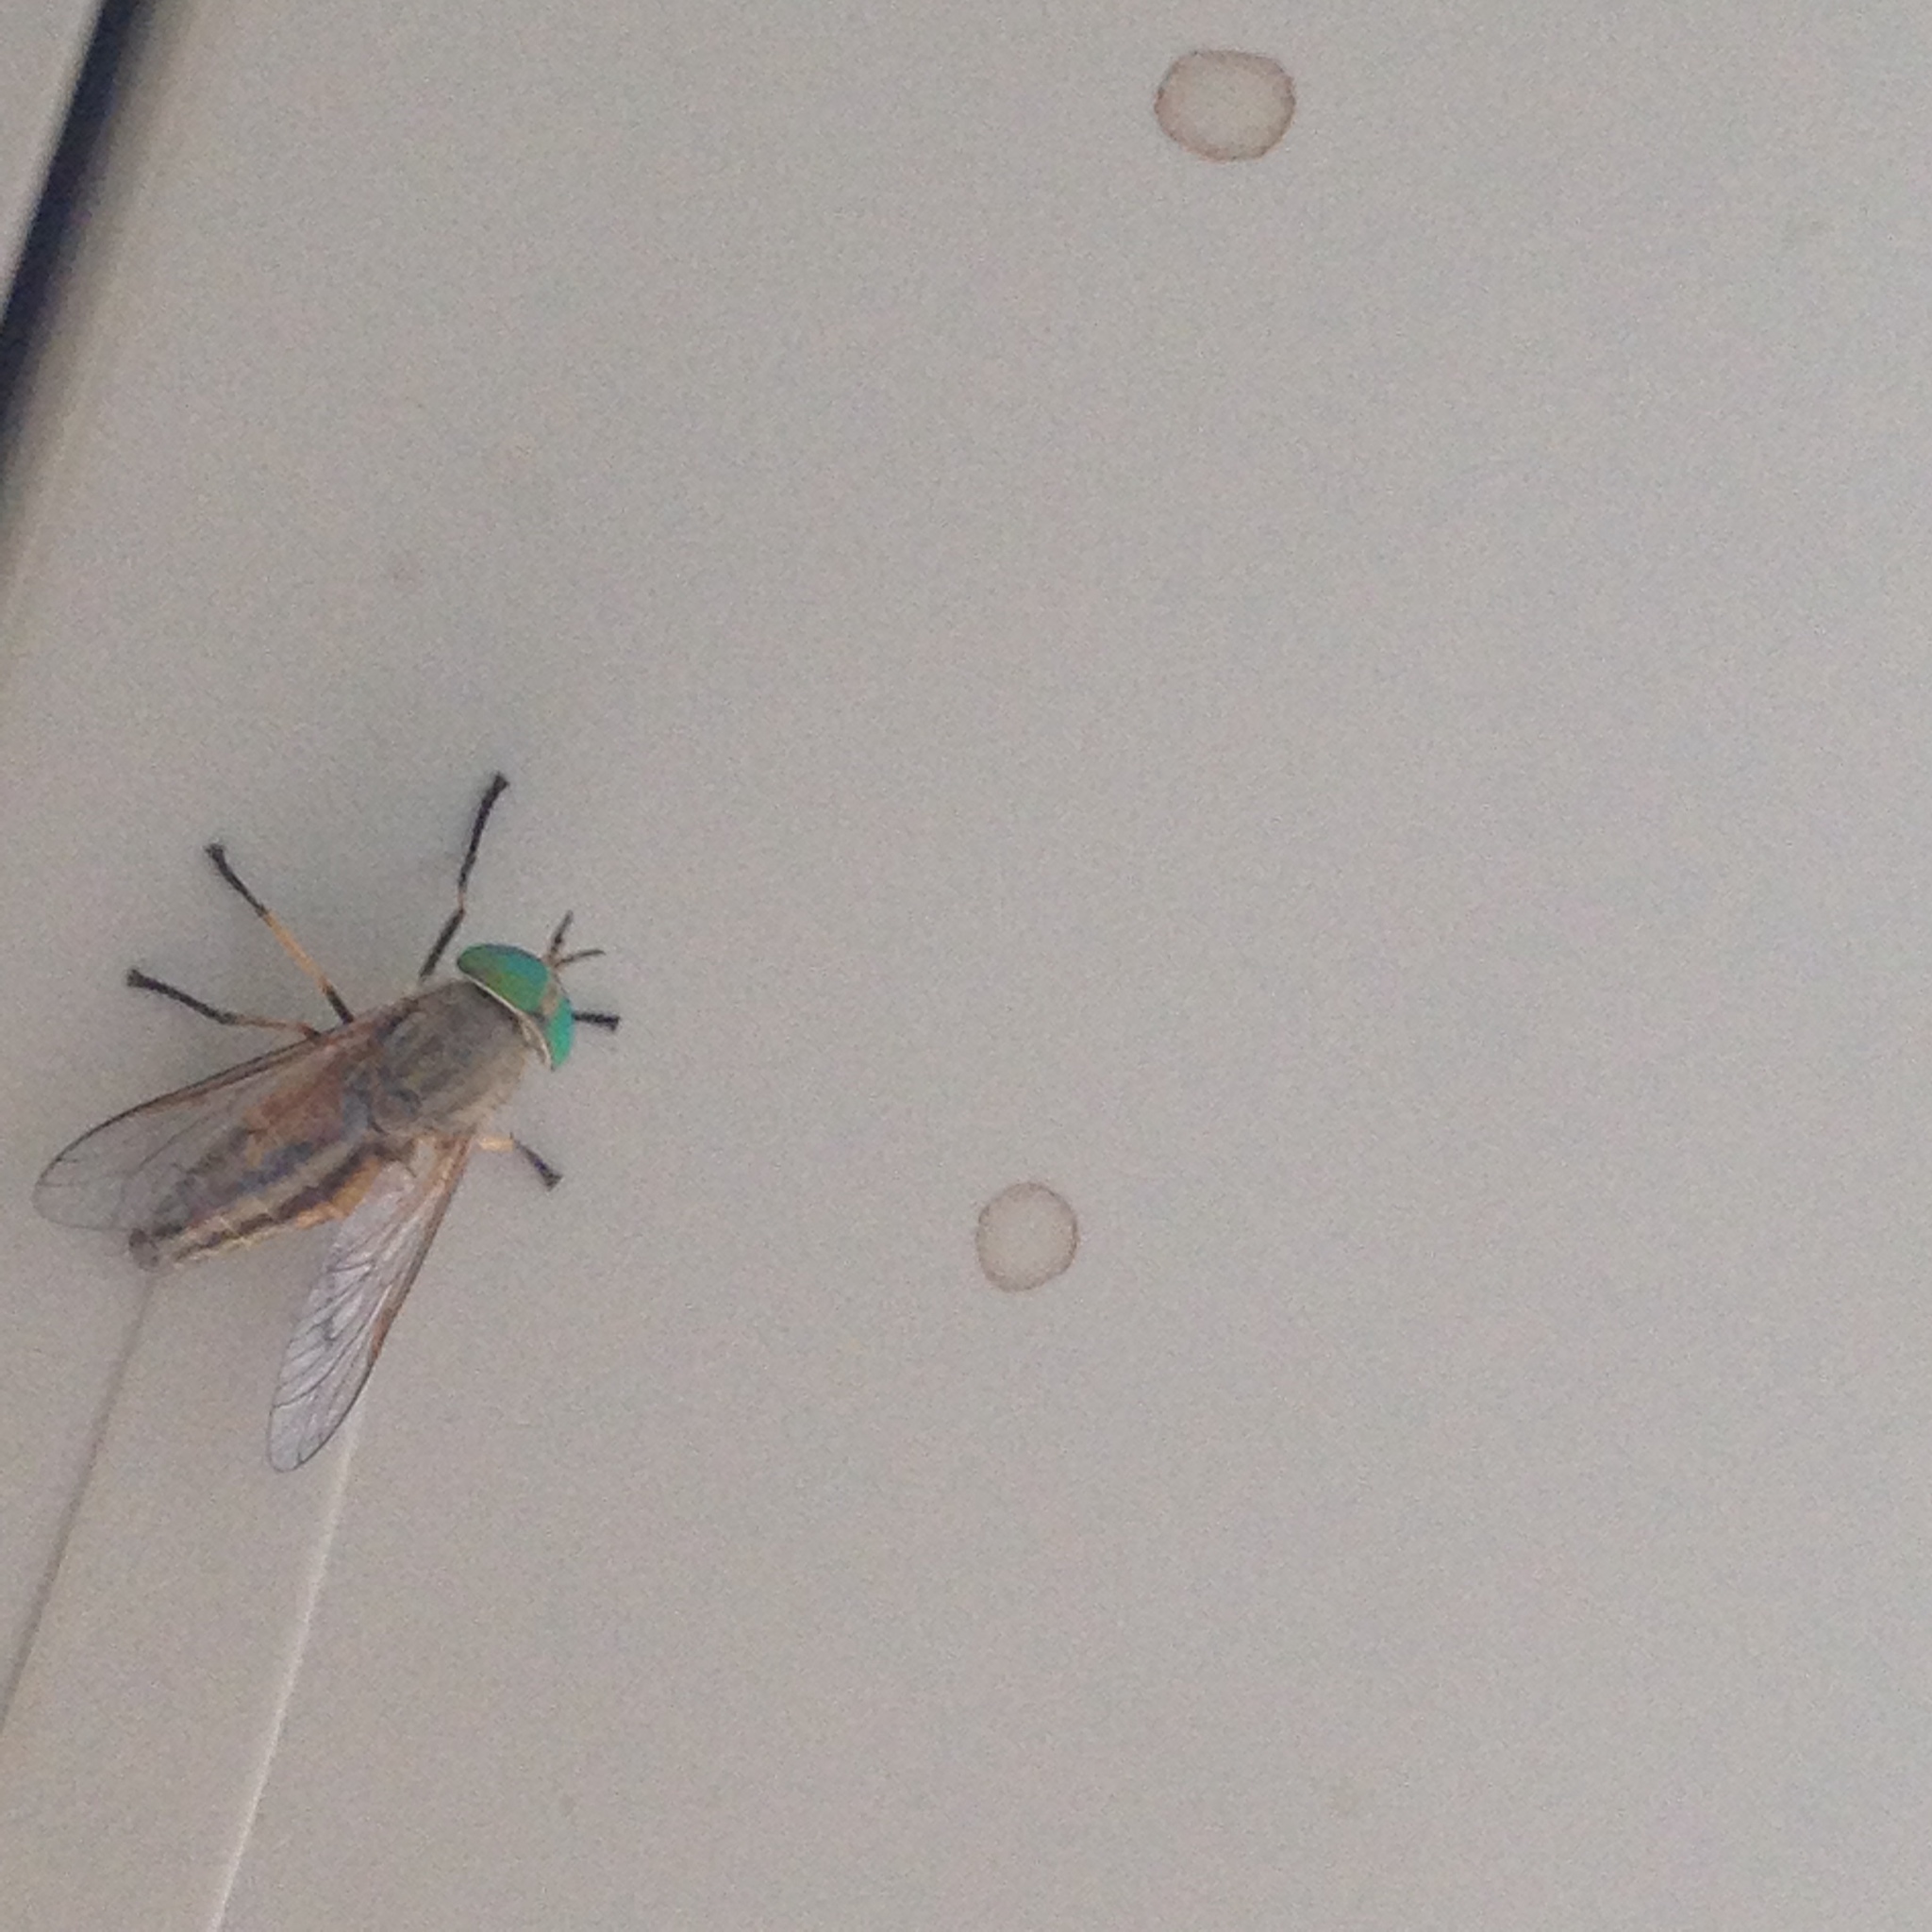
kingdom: Animalia
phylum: Arthropoda
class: Insecta
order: Diptera
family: Tabanidae
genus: Tabanus
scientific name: Tabanus
